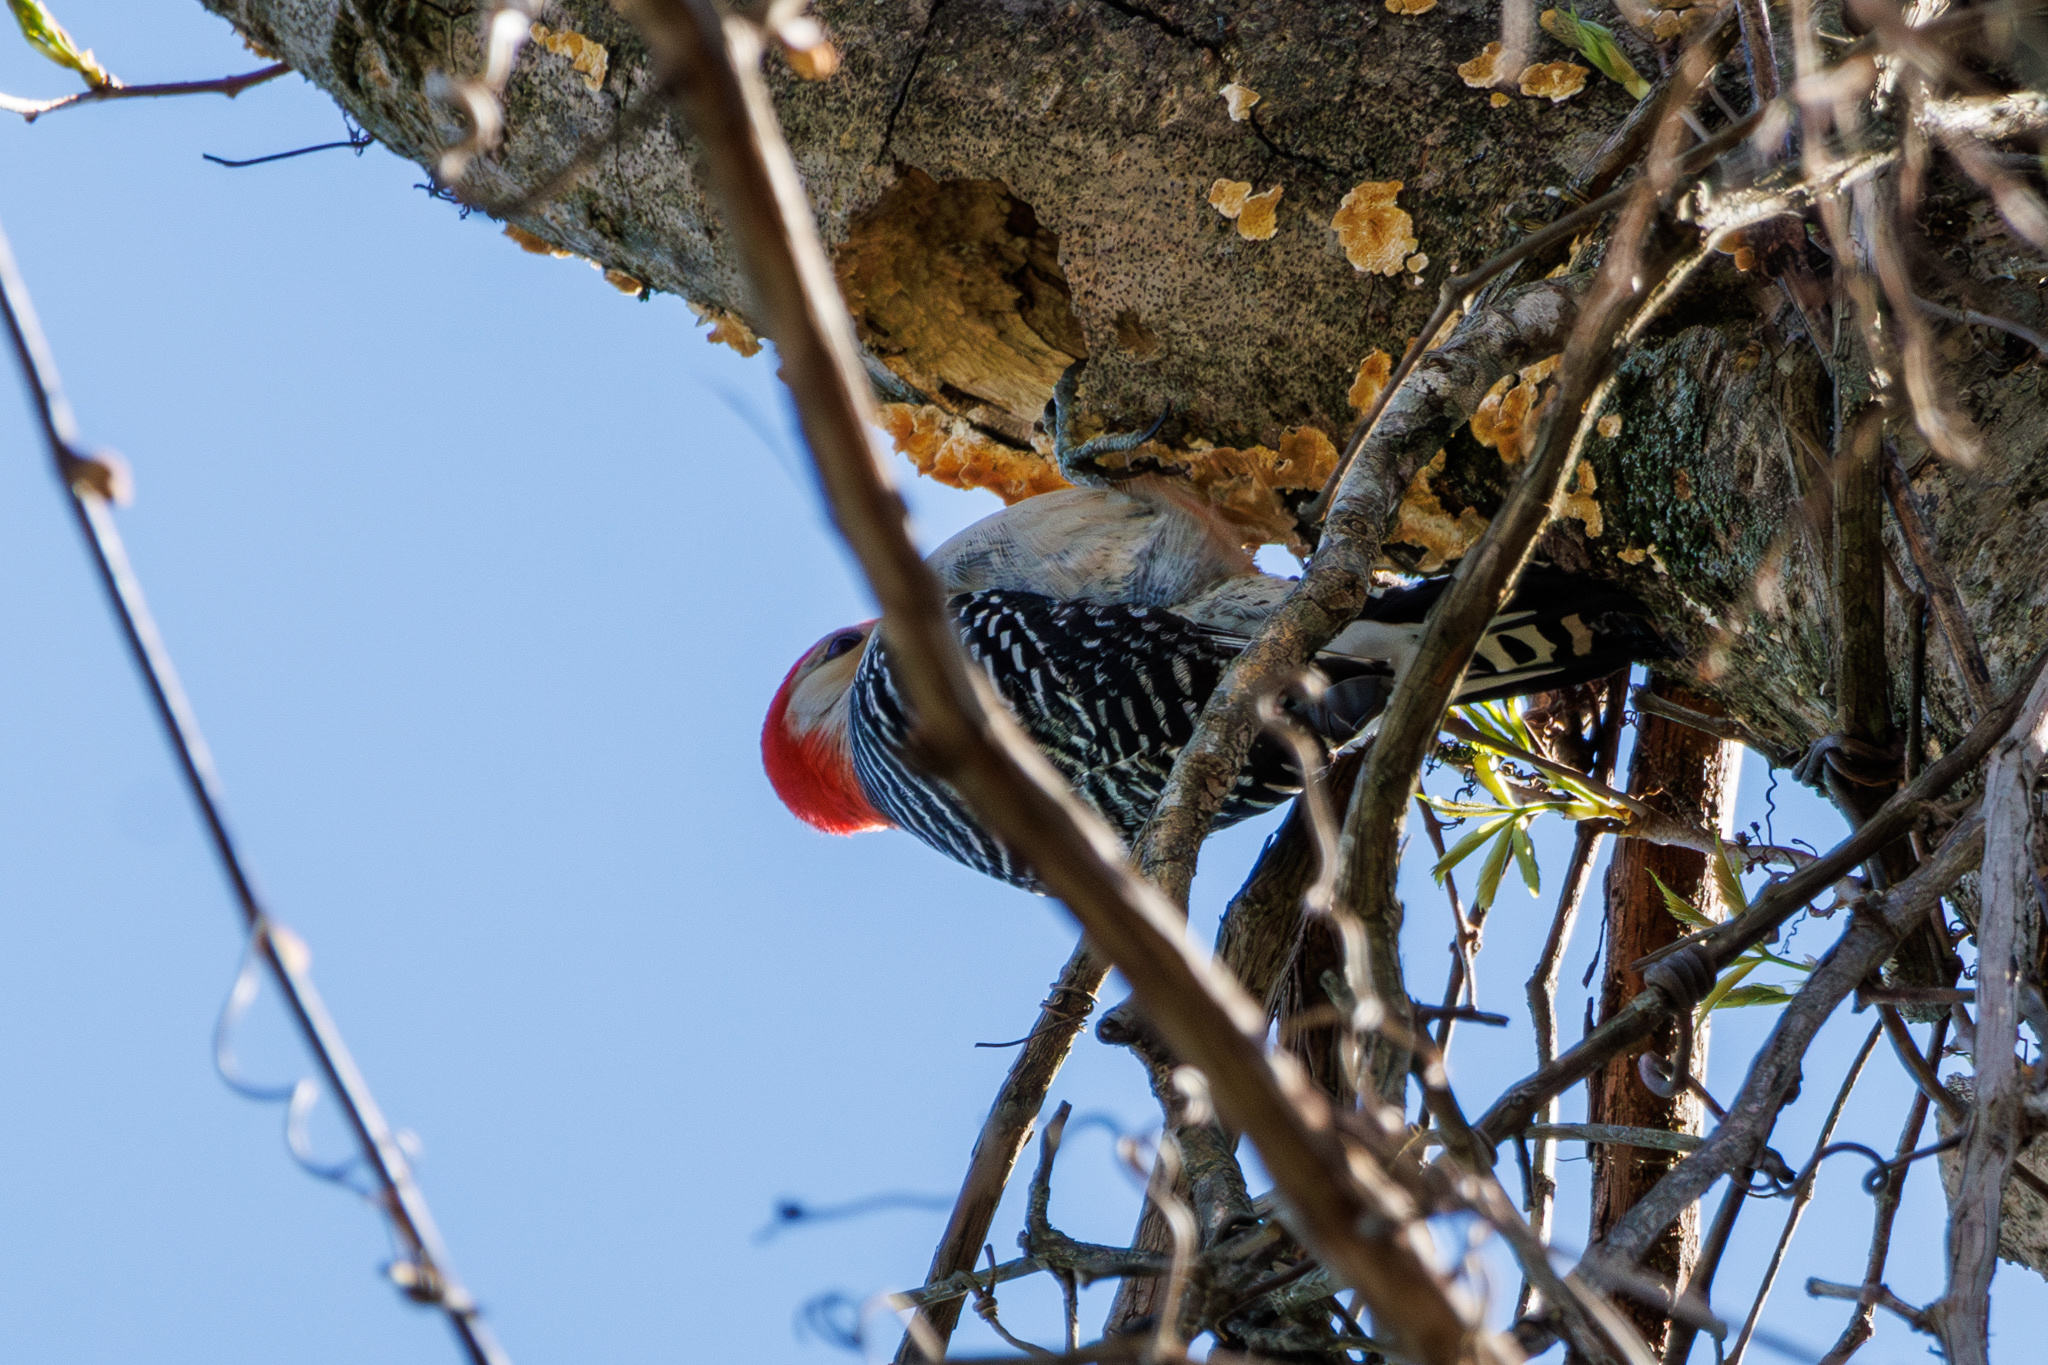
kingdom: Animalia
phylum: Chordata
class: Aves
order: Piciformes
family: Picidae
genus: Melanerpes
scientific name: Melanerpes carolinus
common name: Red-bellied woodpecker
